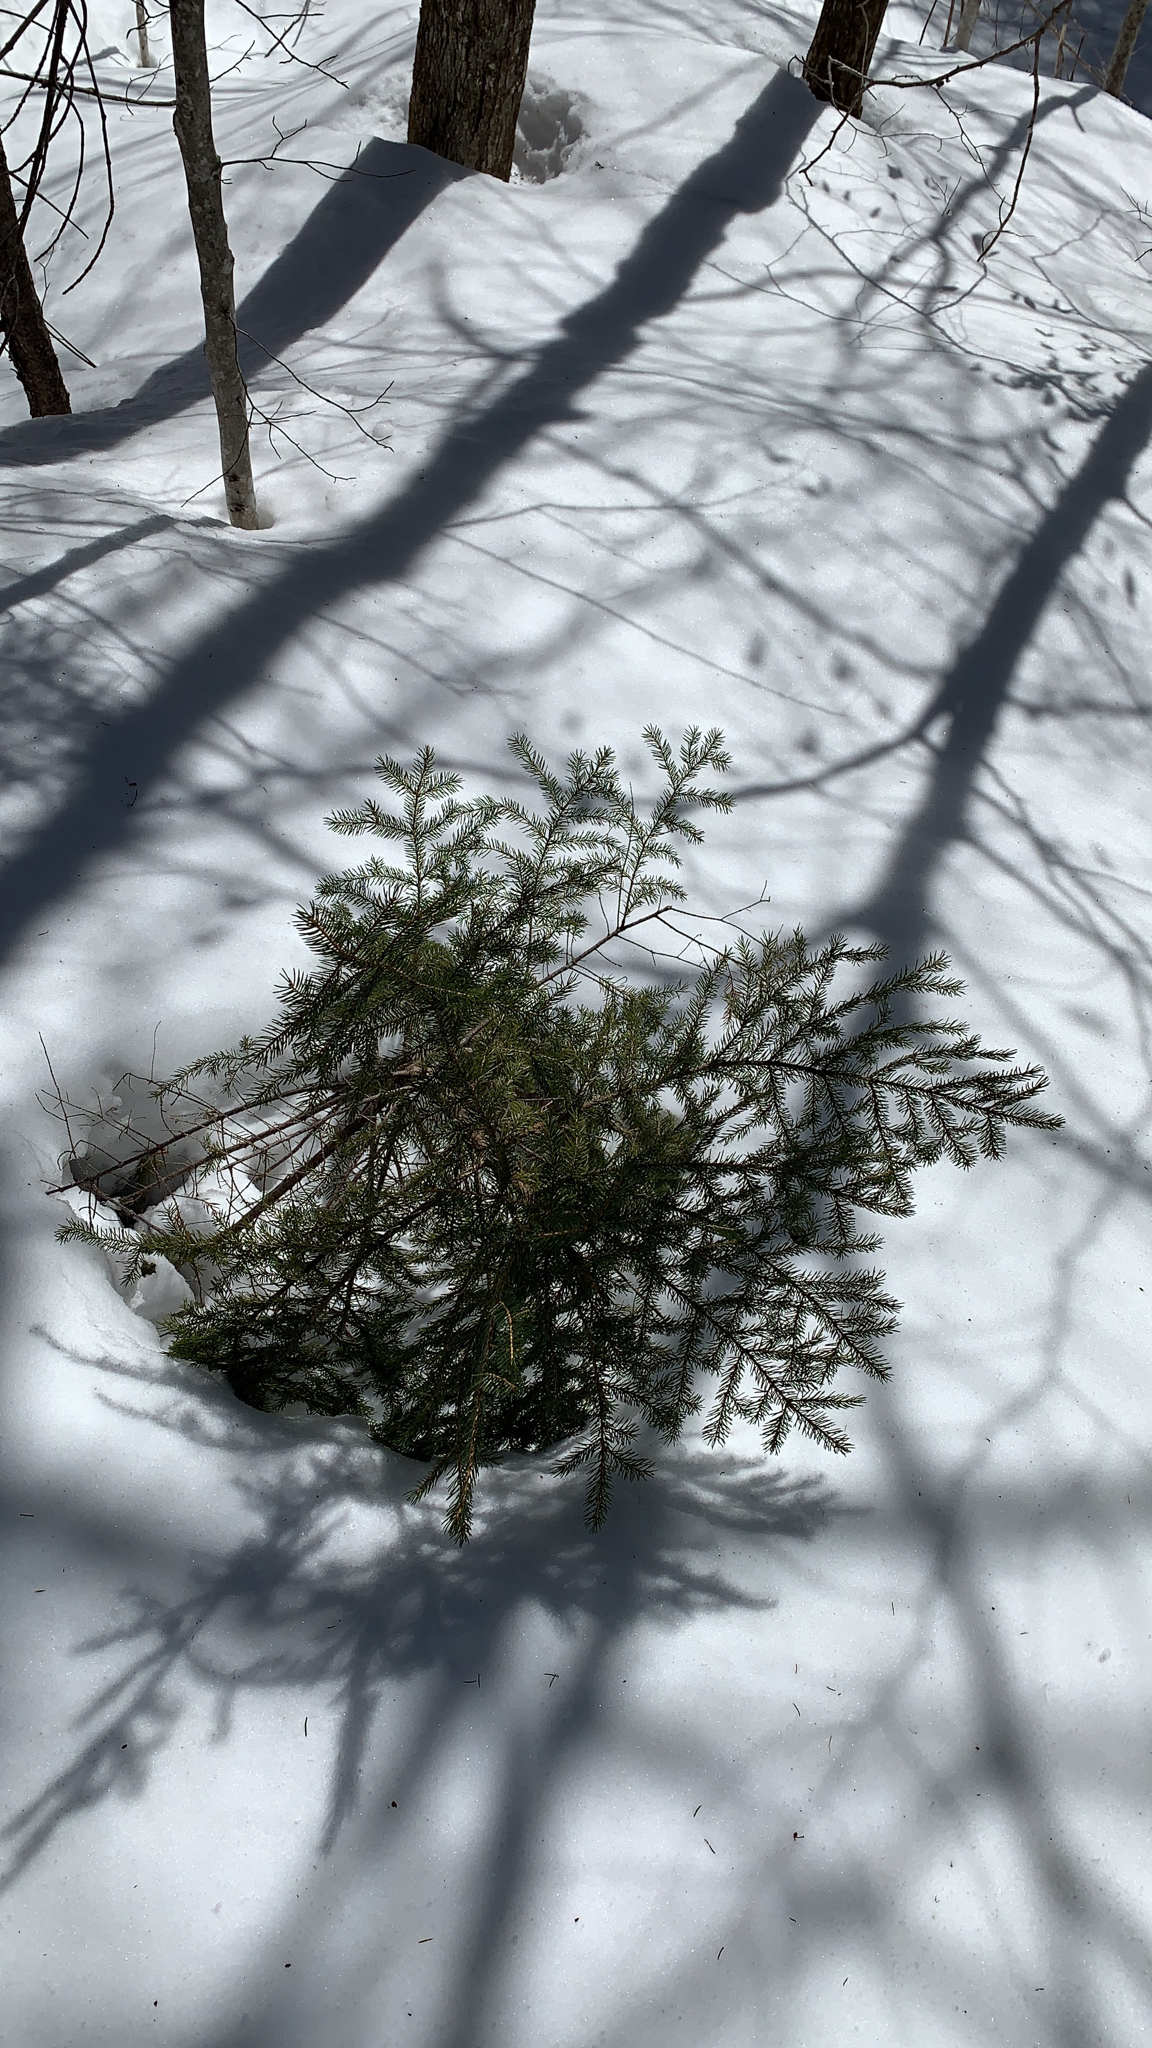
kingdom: Plantae
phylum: Tracheophyta
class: Pinopsida
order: Pinales
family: Pinaceae
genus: Picea
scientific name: Picea rubens
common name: Red spruce
